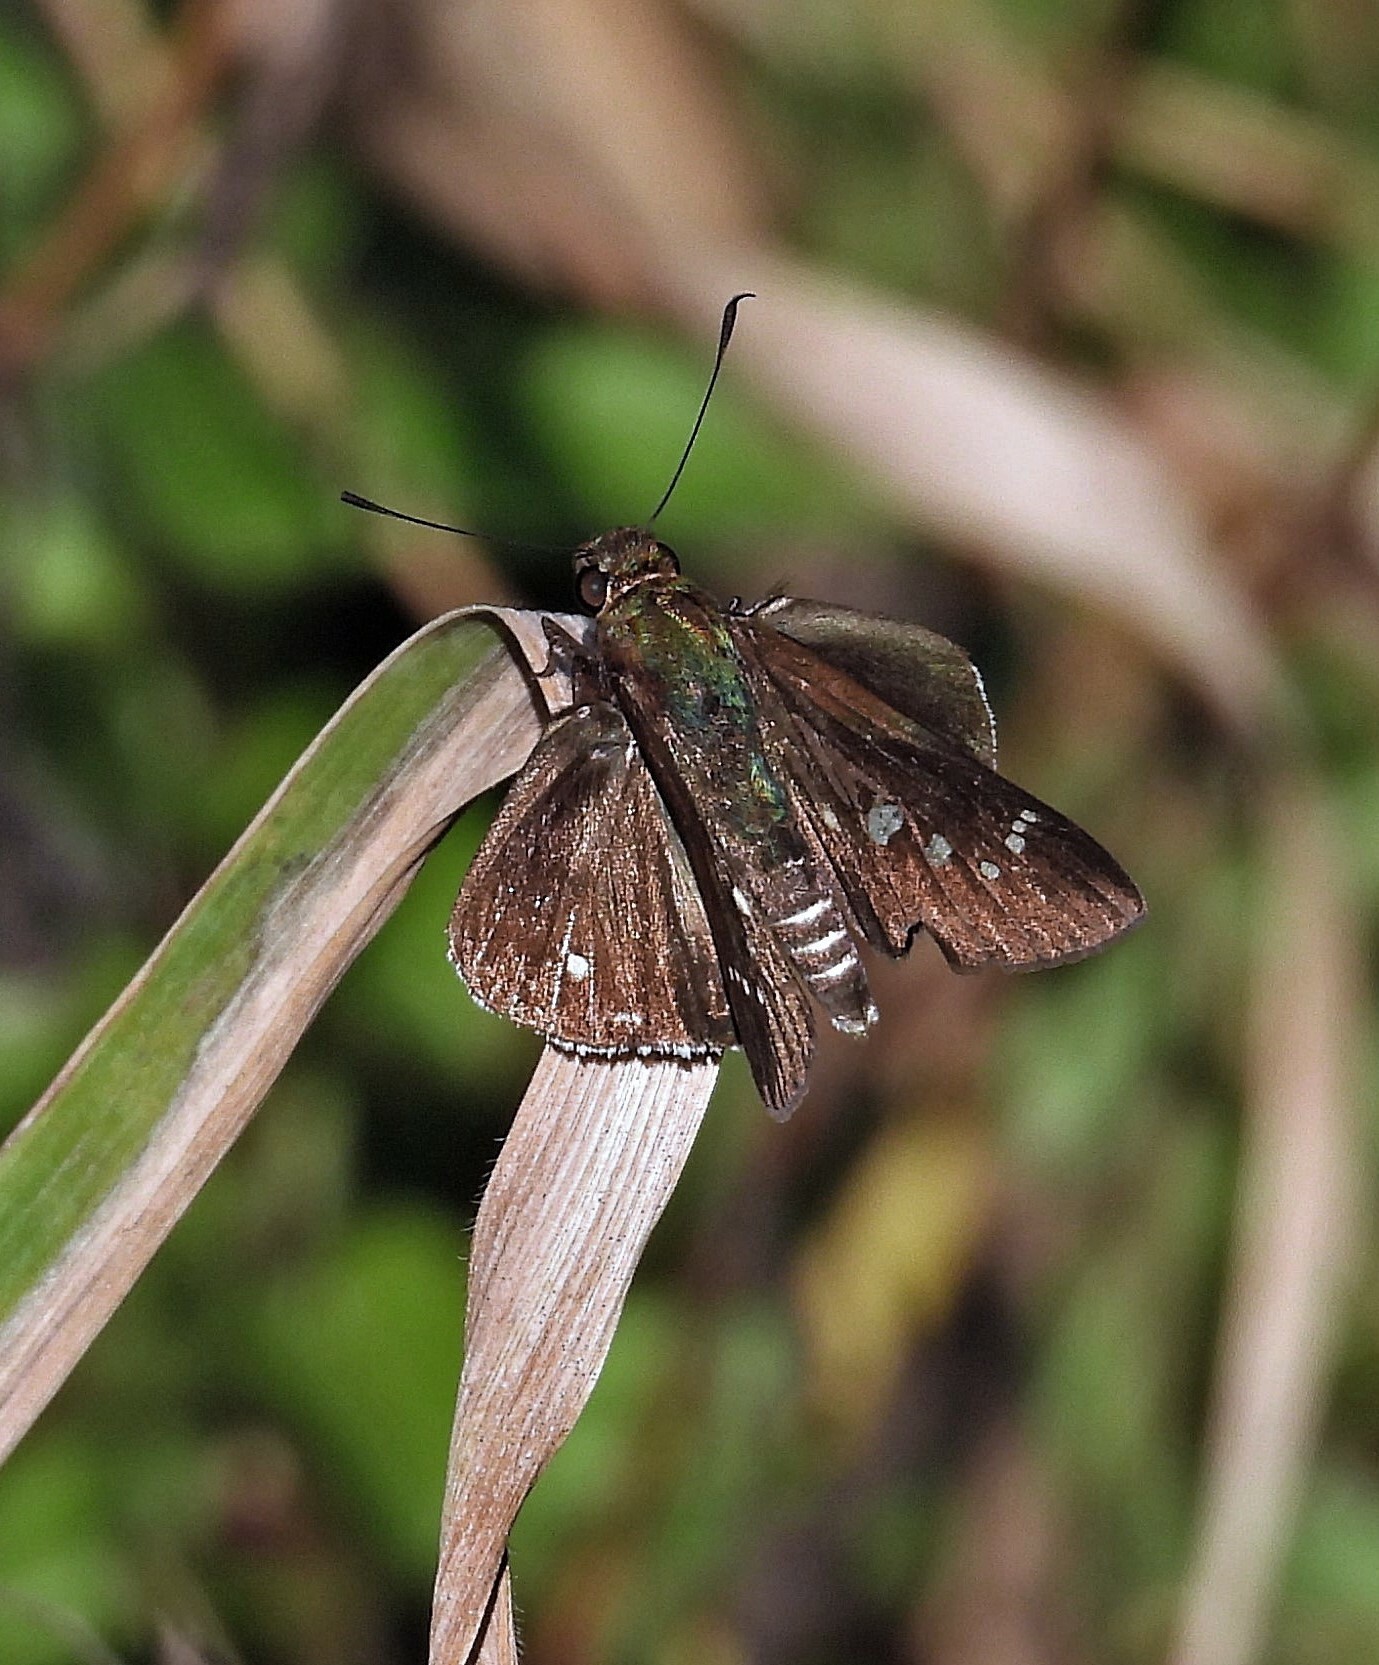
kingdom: Animalia
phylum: Arthropoda
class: Insecta
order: Lepidoptera
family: Hesperiidae
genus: Eutychide
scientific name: Eutychide physcella
